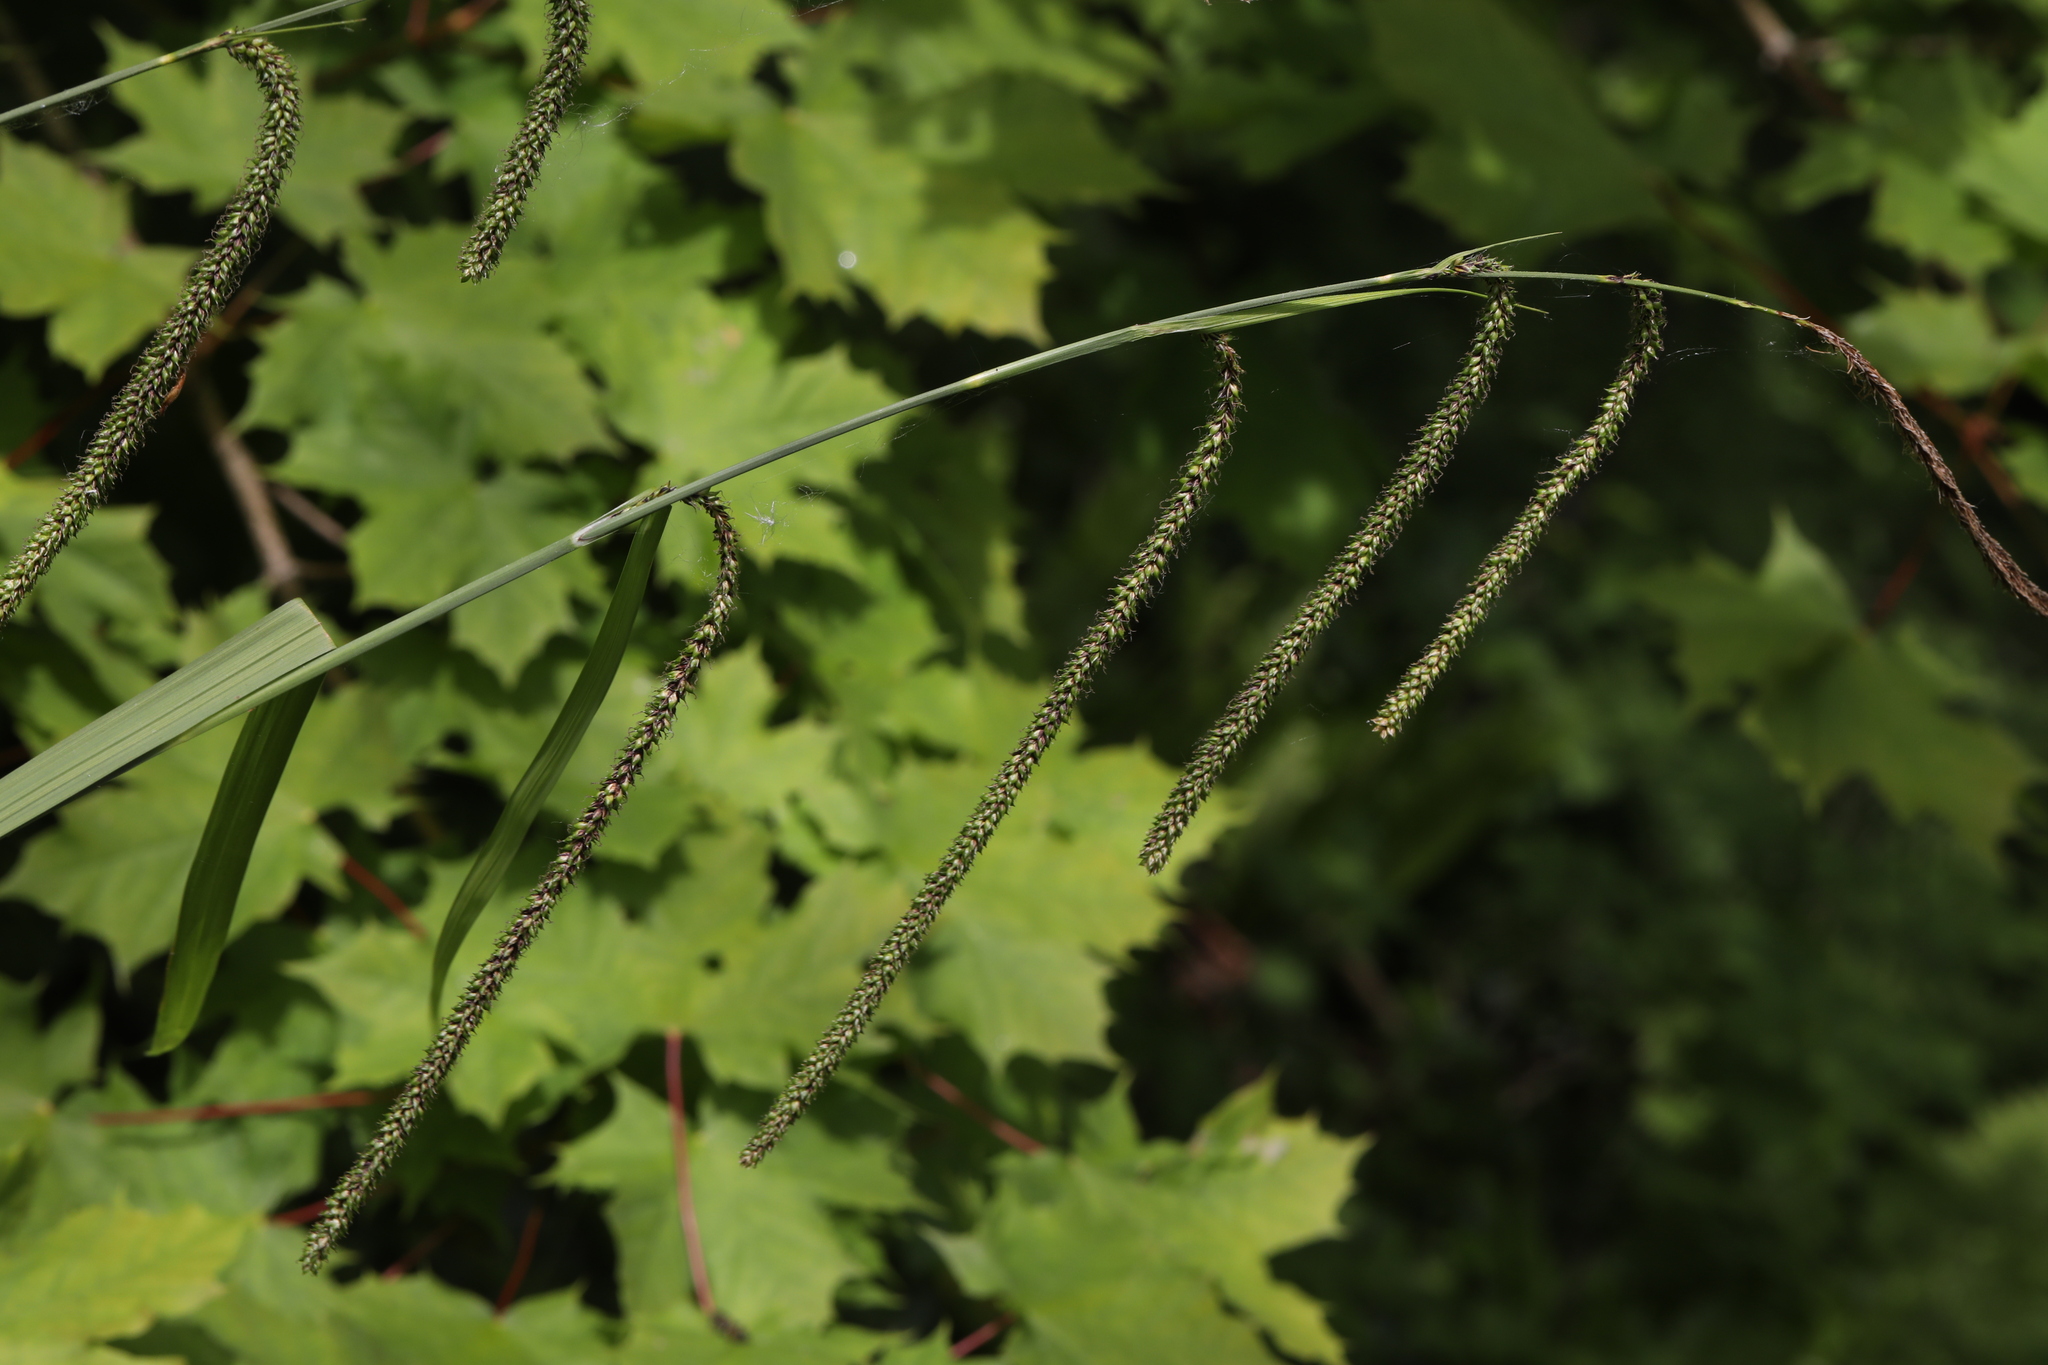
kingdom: Plantae
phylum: Tracheophyta
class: Liliopsida
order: Poales
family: Cyperaceae
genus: Carex
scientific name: Carex pendula
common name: Pendulous sedge
